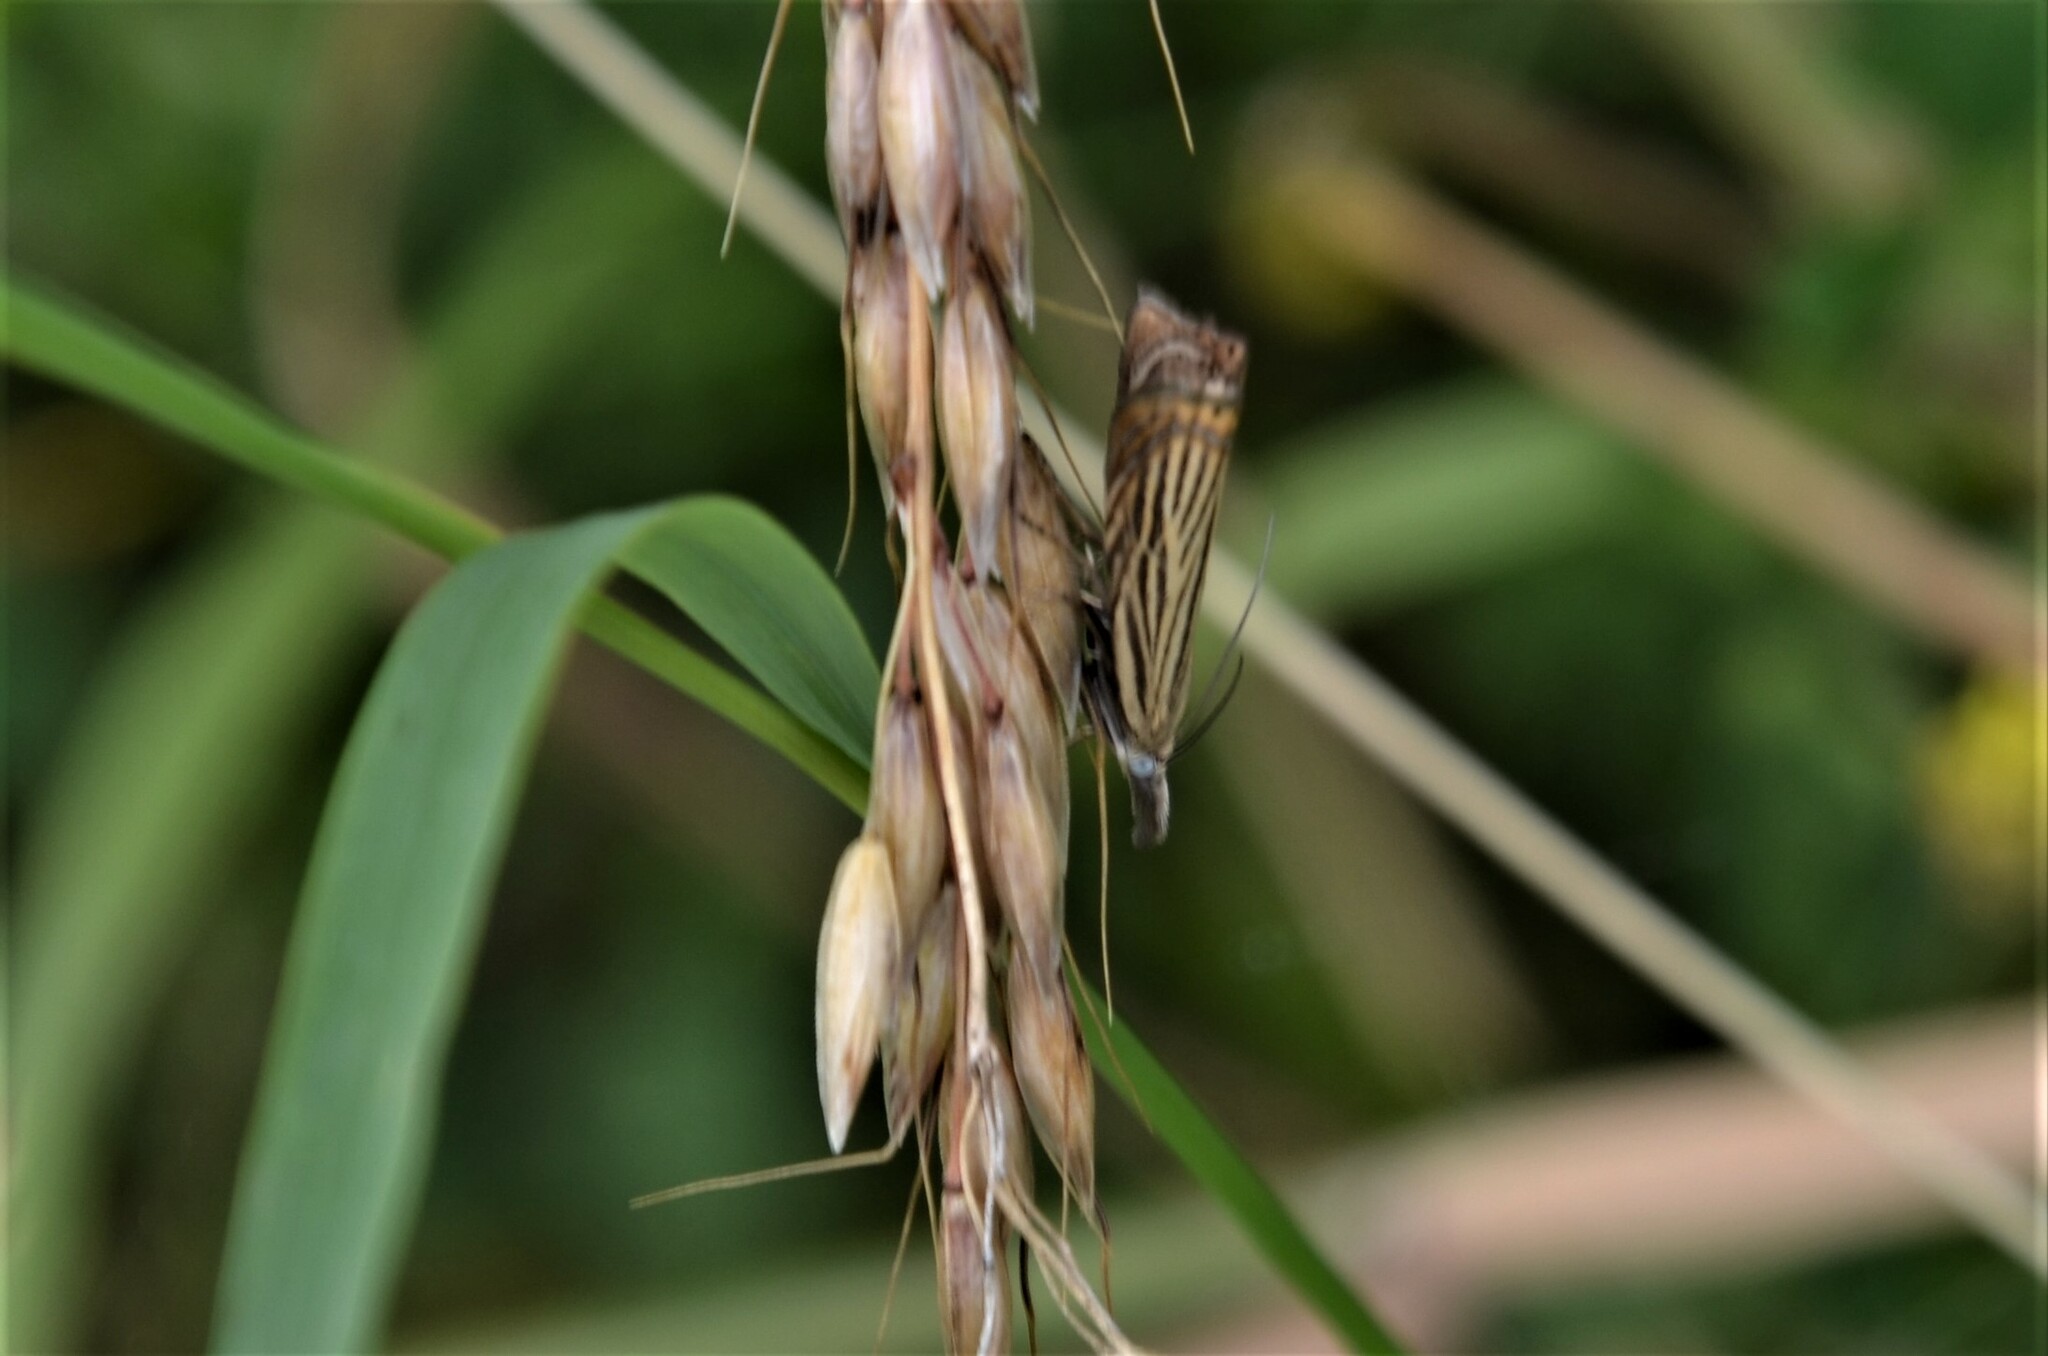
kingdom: Animalia
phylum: Arthropoda
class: Insecta
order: Lepidoptera
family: Crambidae
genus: Chrysoteuchia
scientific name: Chrysoteuchia culmella
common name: Garden grass-veneer
